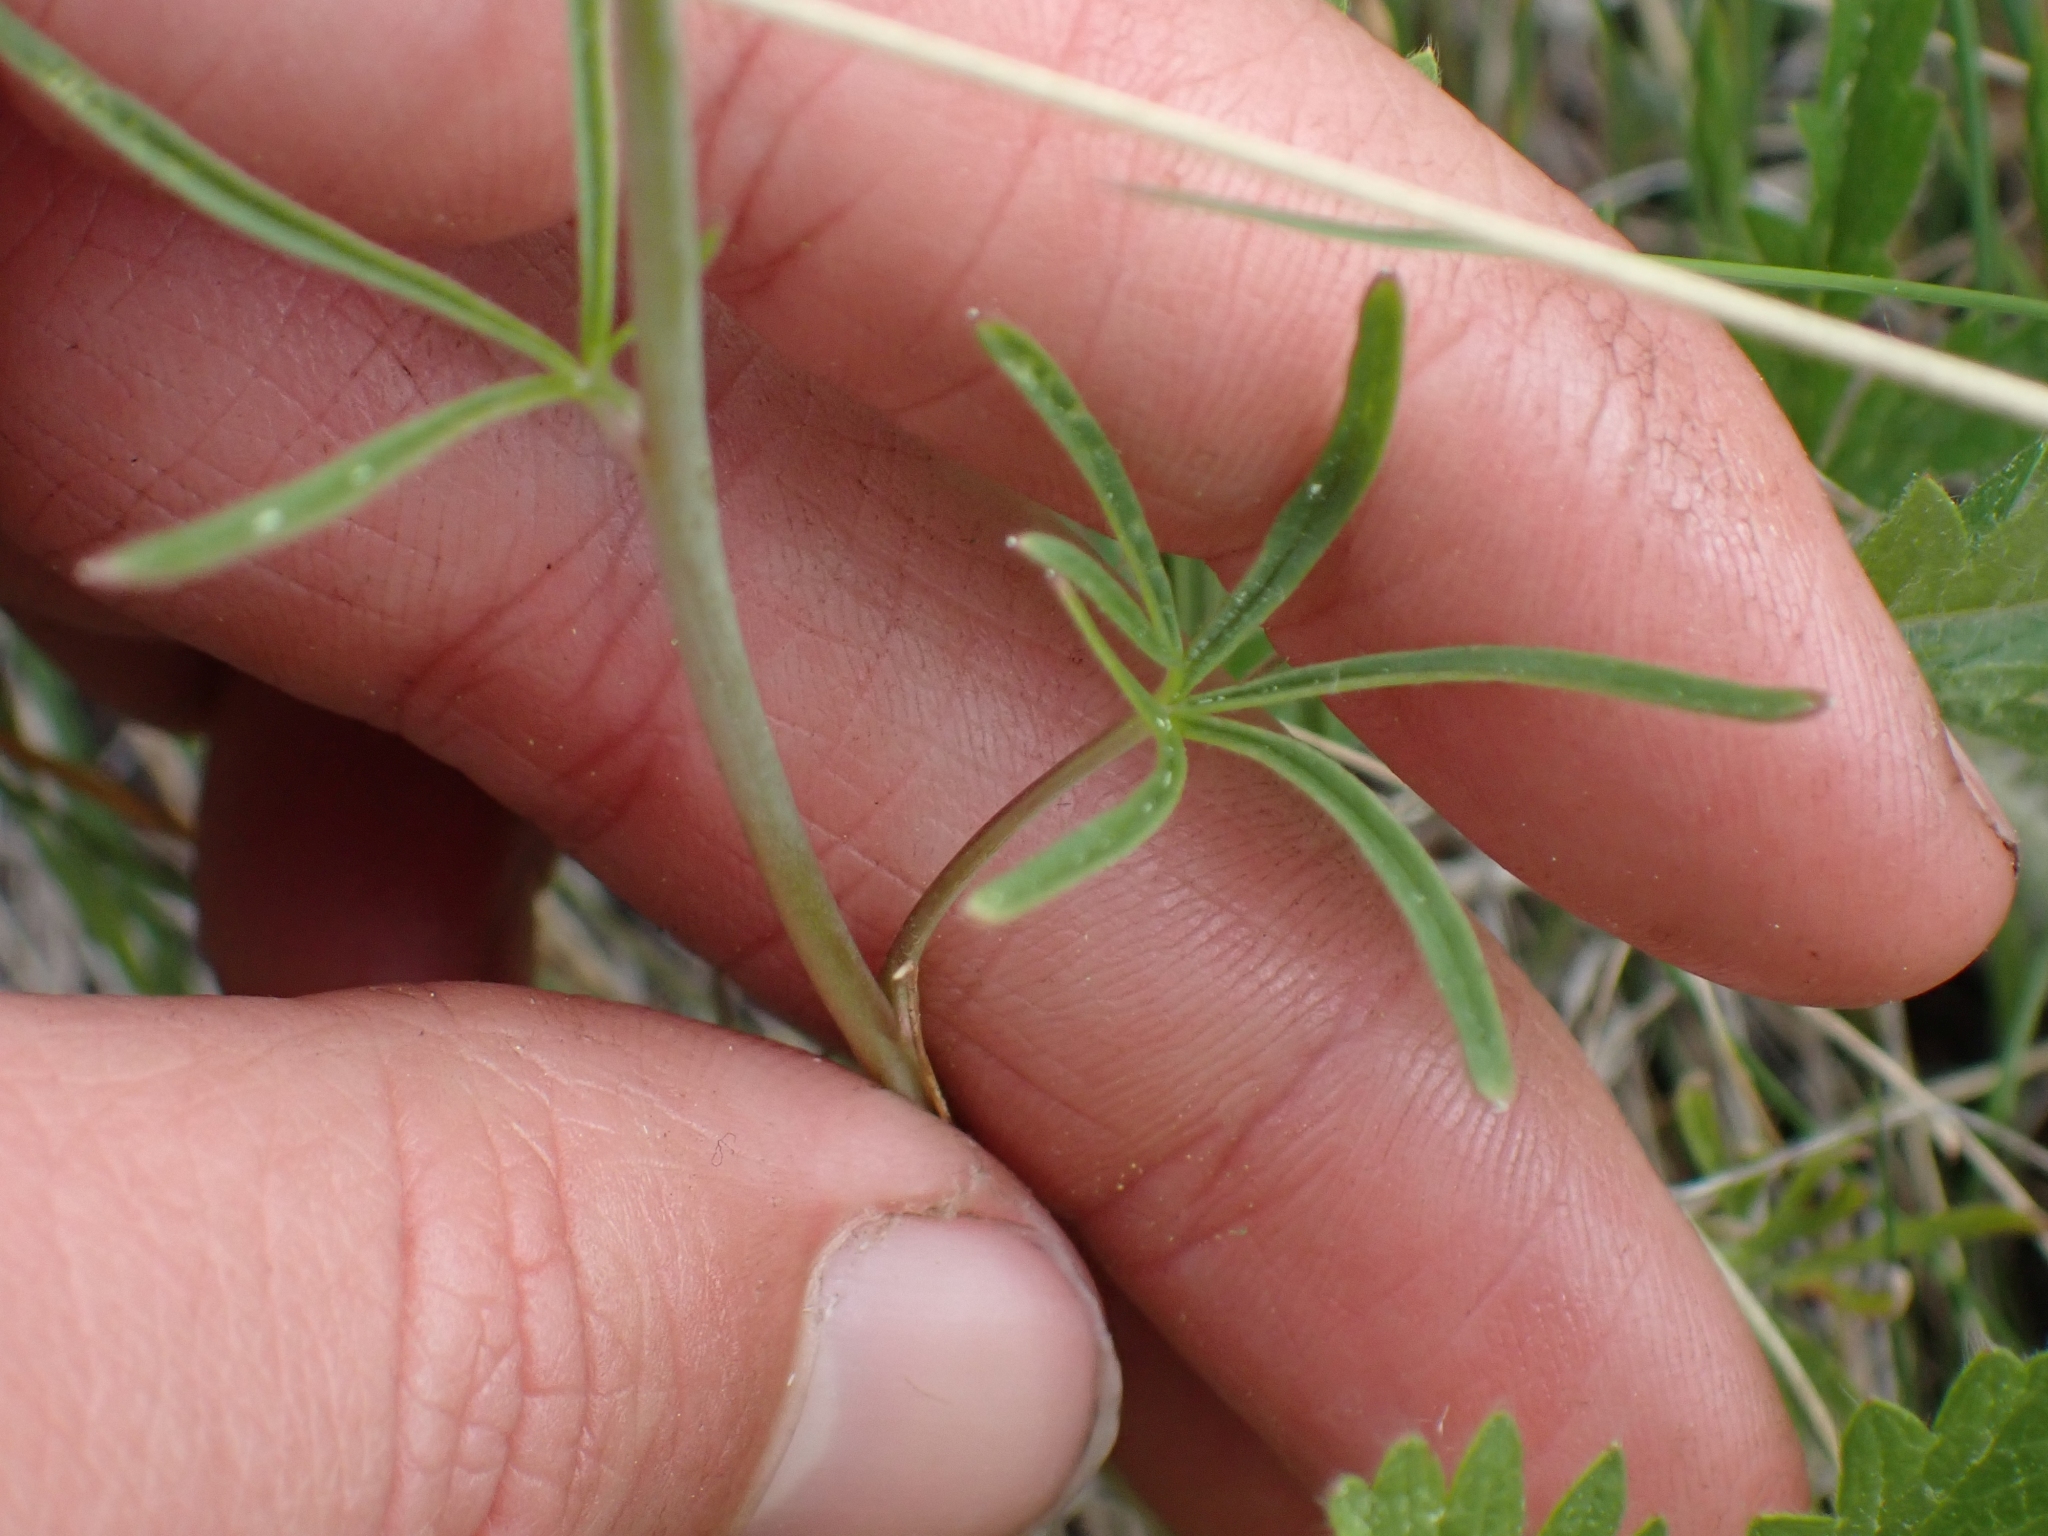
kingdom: Plantae
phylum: Tracheophyta
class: Magnoliopsida
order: Ranunculales
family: Ranunculaceae
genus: Delphinium
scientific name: Delphinium nuttallianum
